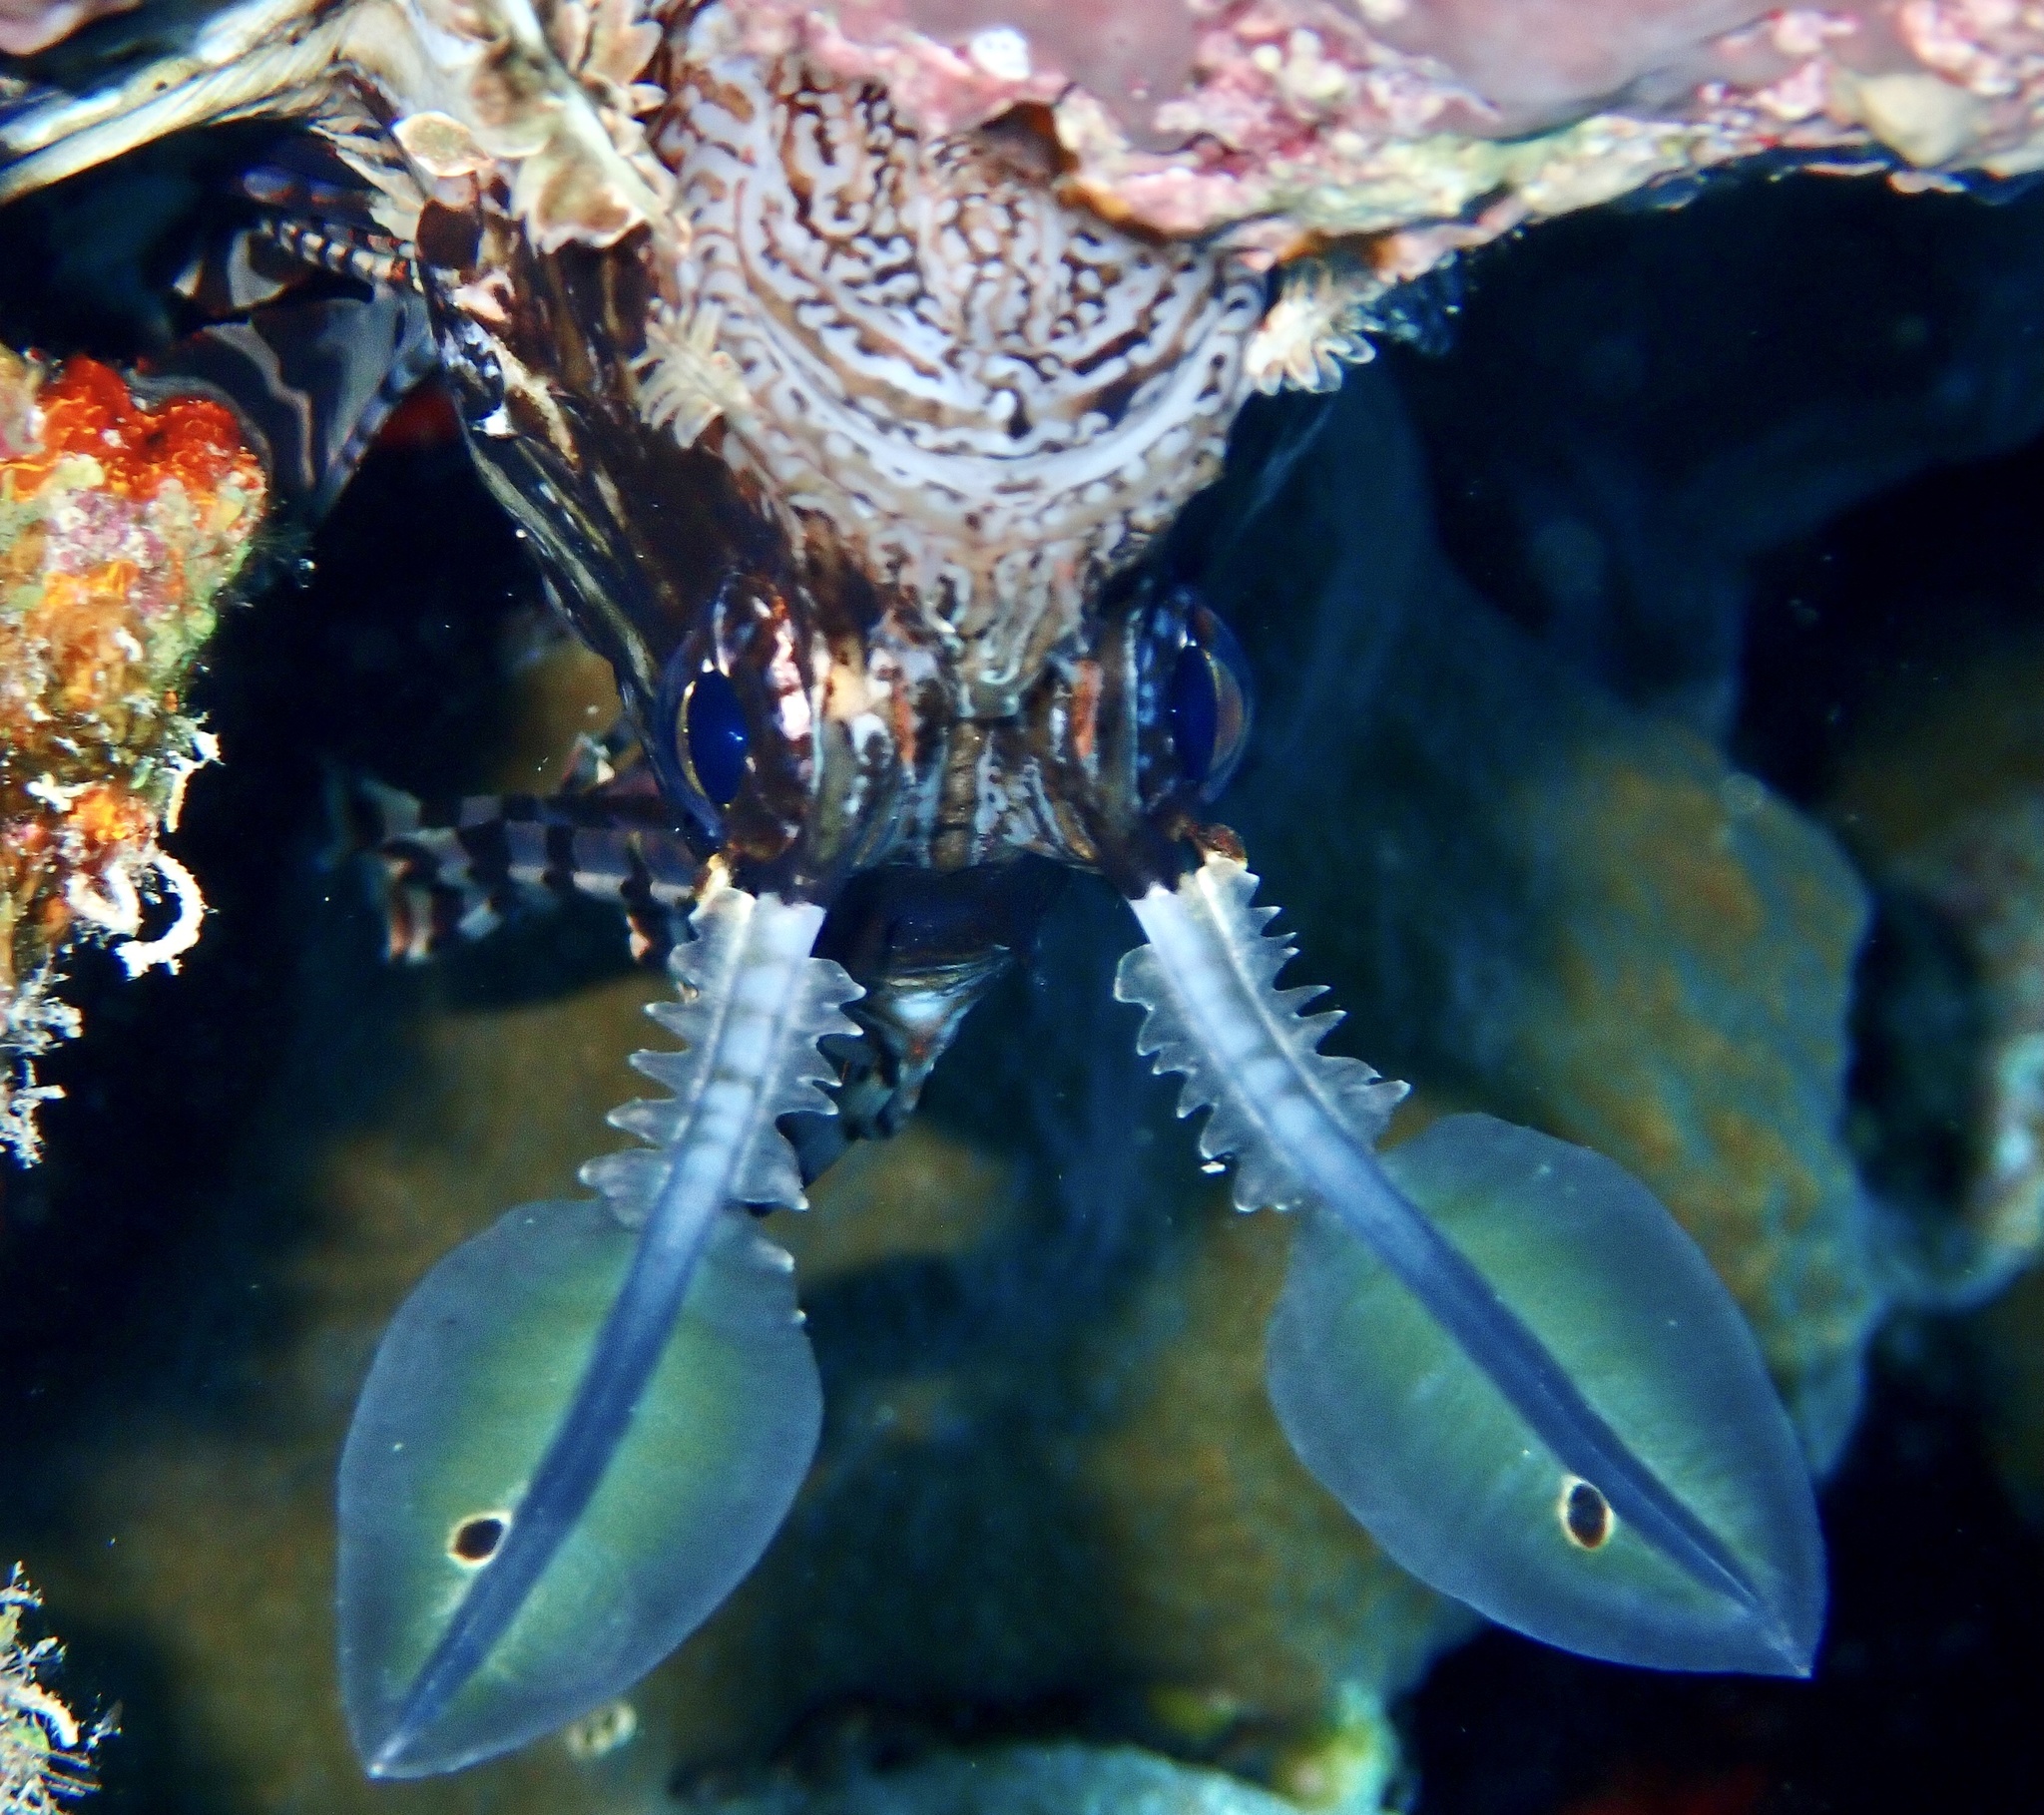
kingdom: Animalia
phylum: Chordata
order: Scorpaeniformes
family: Scorpaenidae
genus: Pterois
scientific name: Pterois miles
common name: Devil firefish
